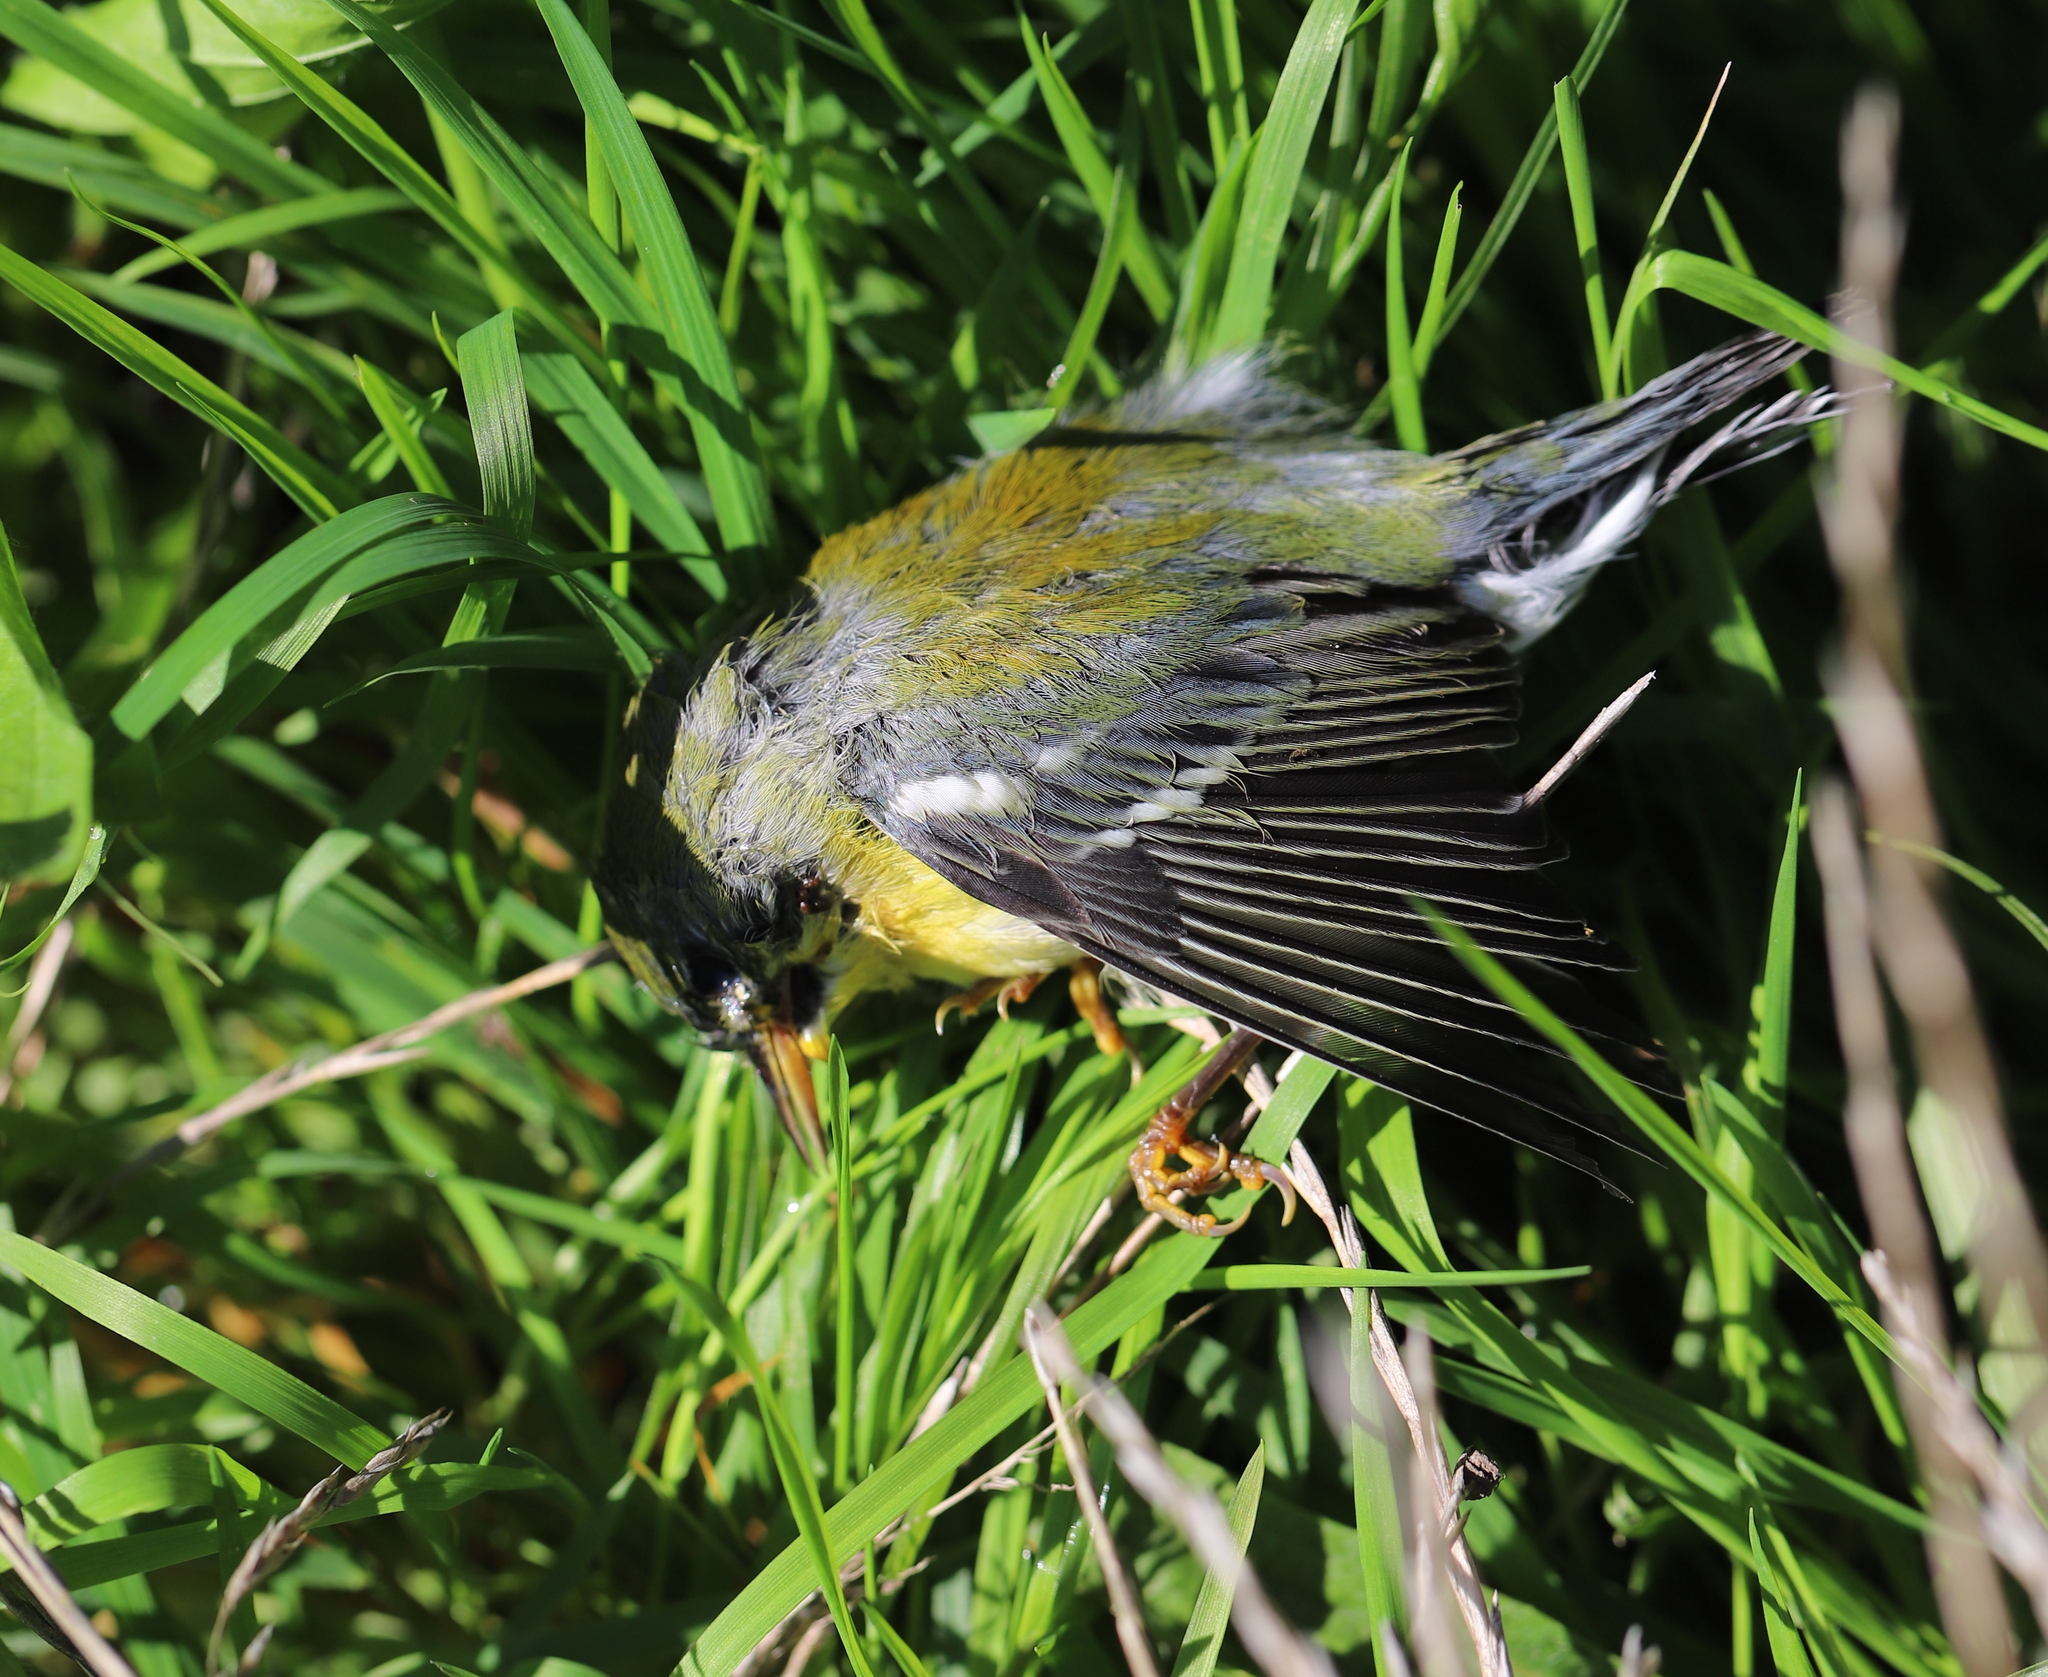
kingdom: Animalia
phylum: Chordata
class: Aves
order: Passeriformes
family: Parulidae
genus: Setophaga
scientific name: Setophaga americana
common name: Northern parula
